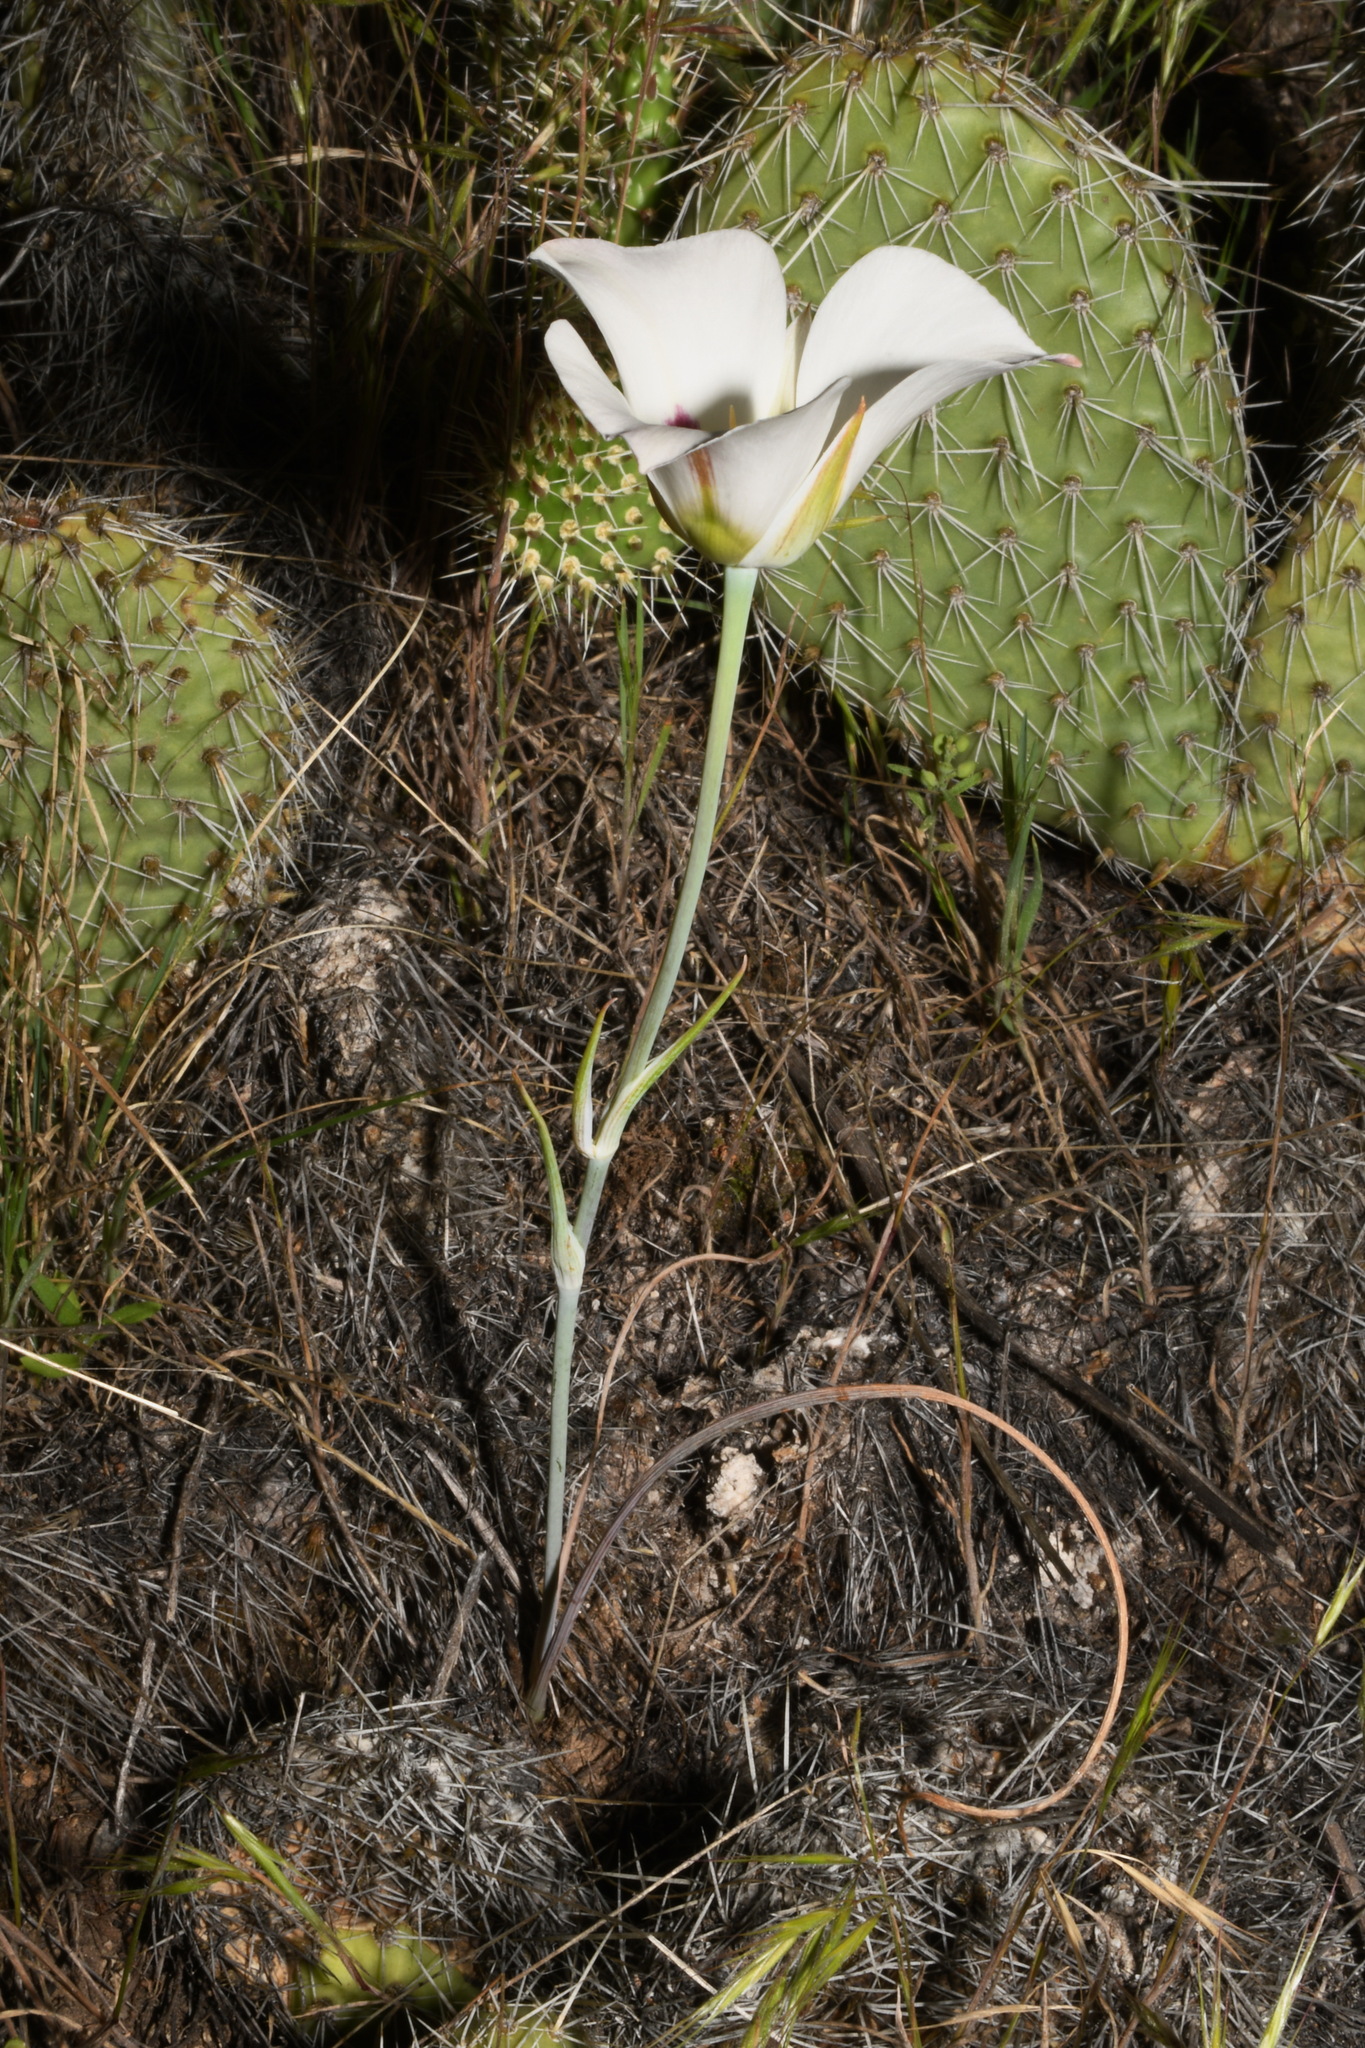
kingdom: Plantae
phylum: Tracheophyta
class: Liliopsida
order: Liliales
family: Liliaceae
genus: Calochortus
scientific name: Calochortus nuttallii
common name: Sego-lily
